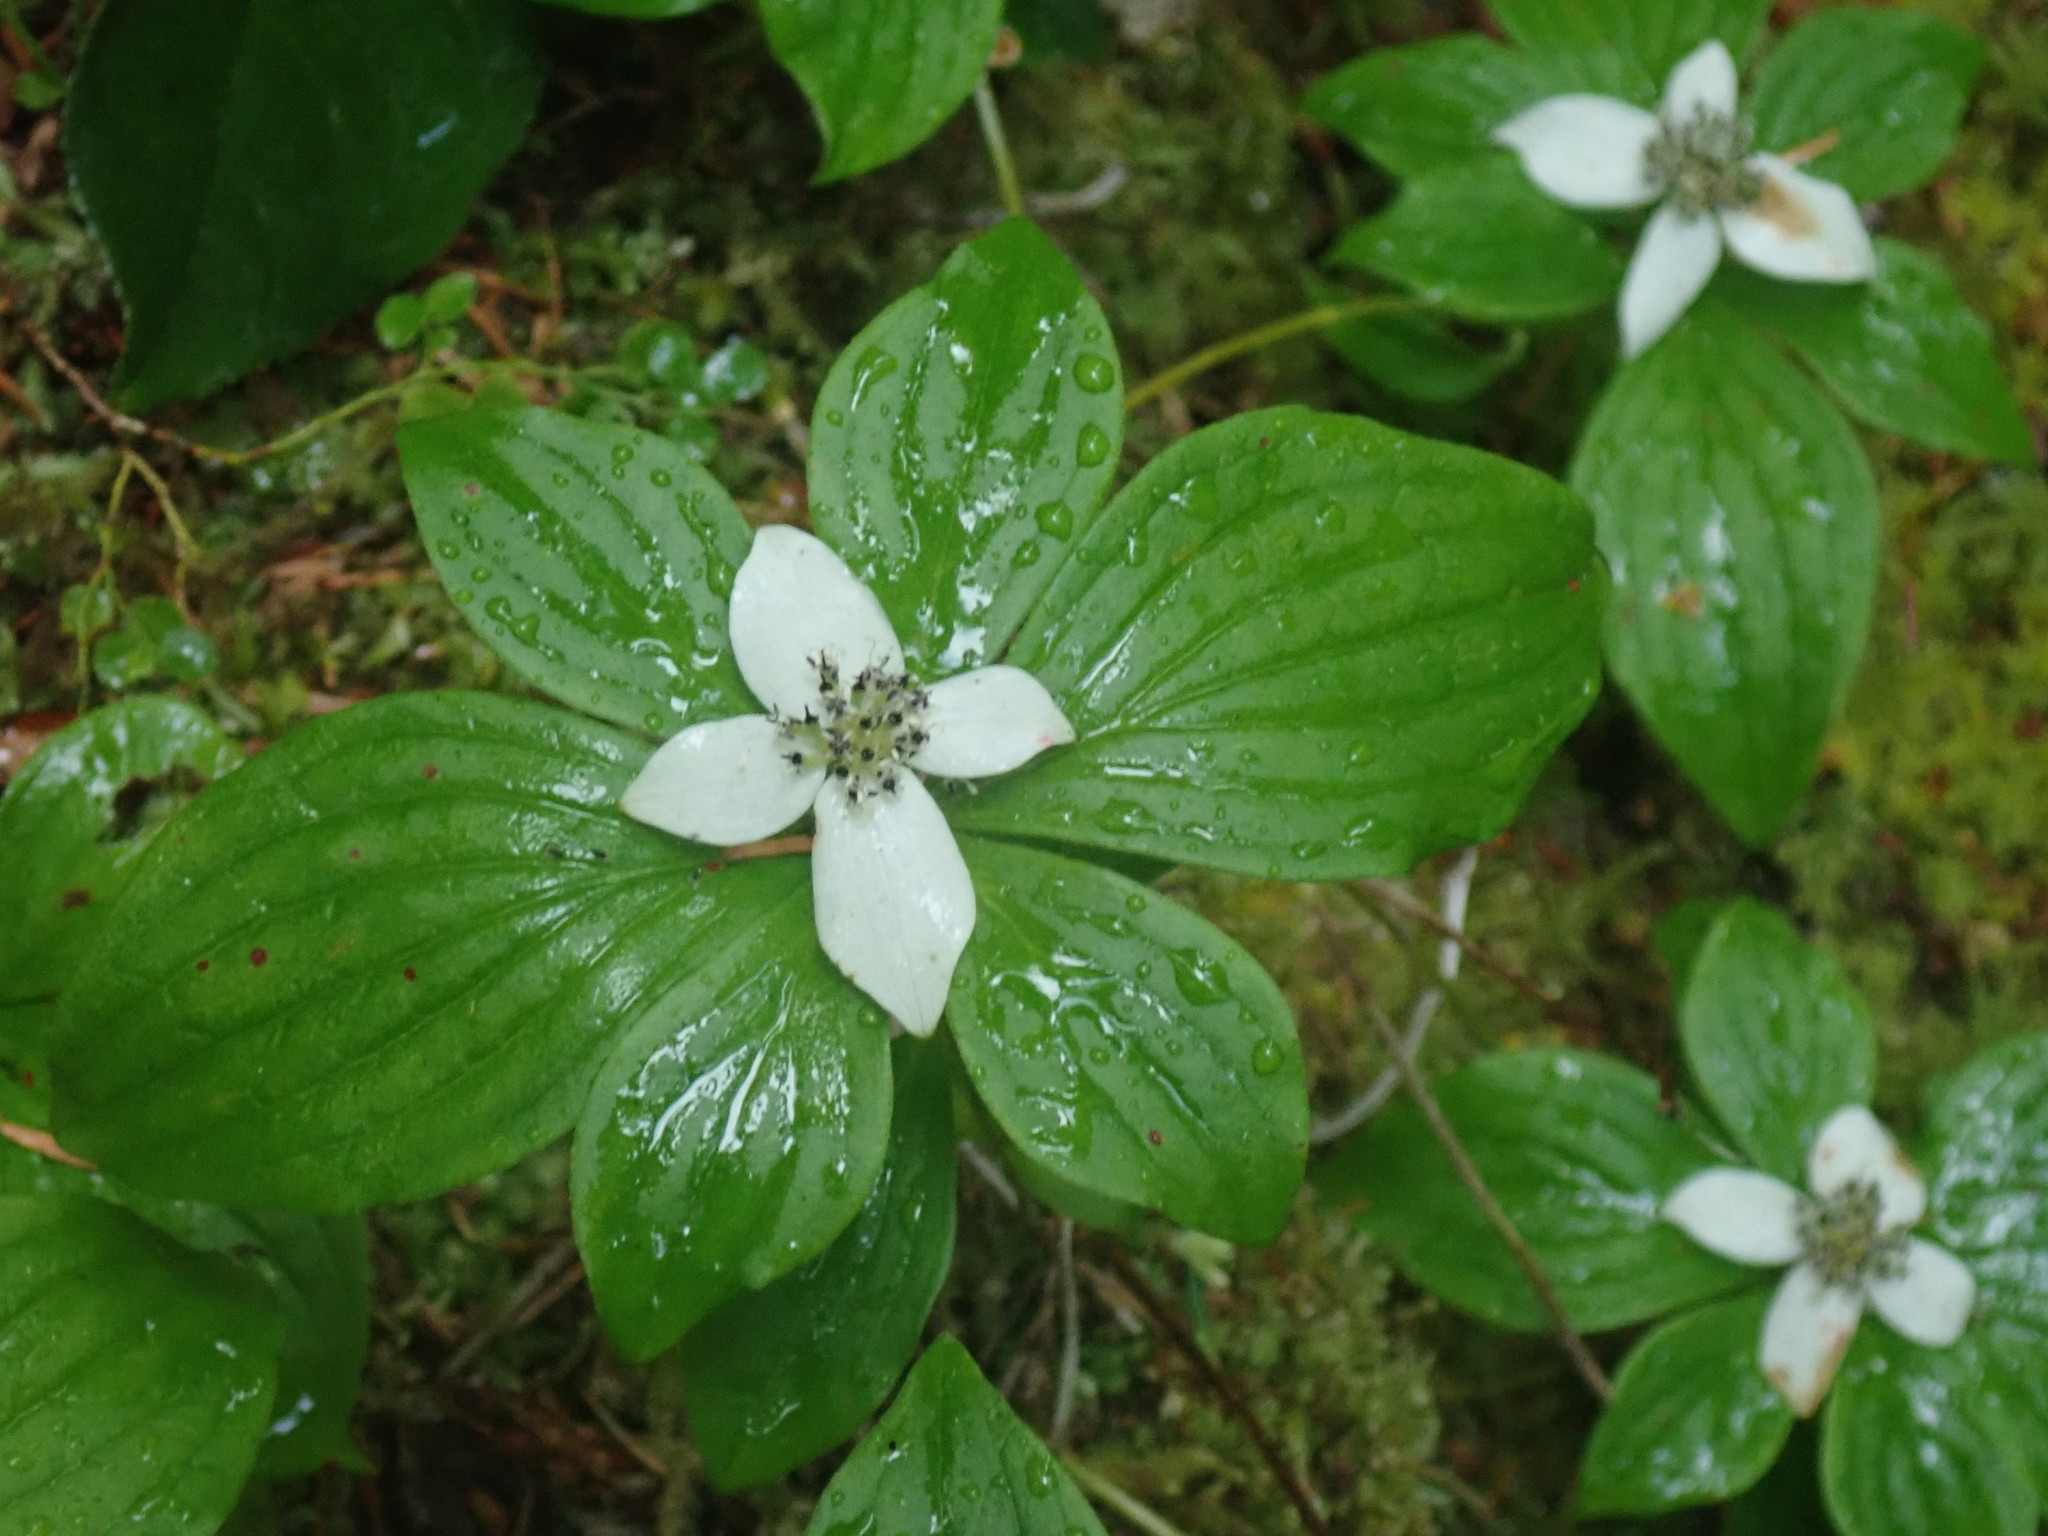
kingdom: Plantae
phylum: Tracheophyta
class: Magnoliopsida
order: Cornales
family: Cornaceae
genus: Cornus
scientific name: Cornus unalaschkensis
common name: Alaska bunchberry
